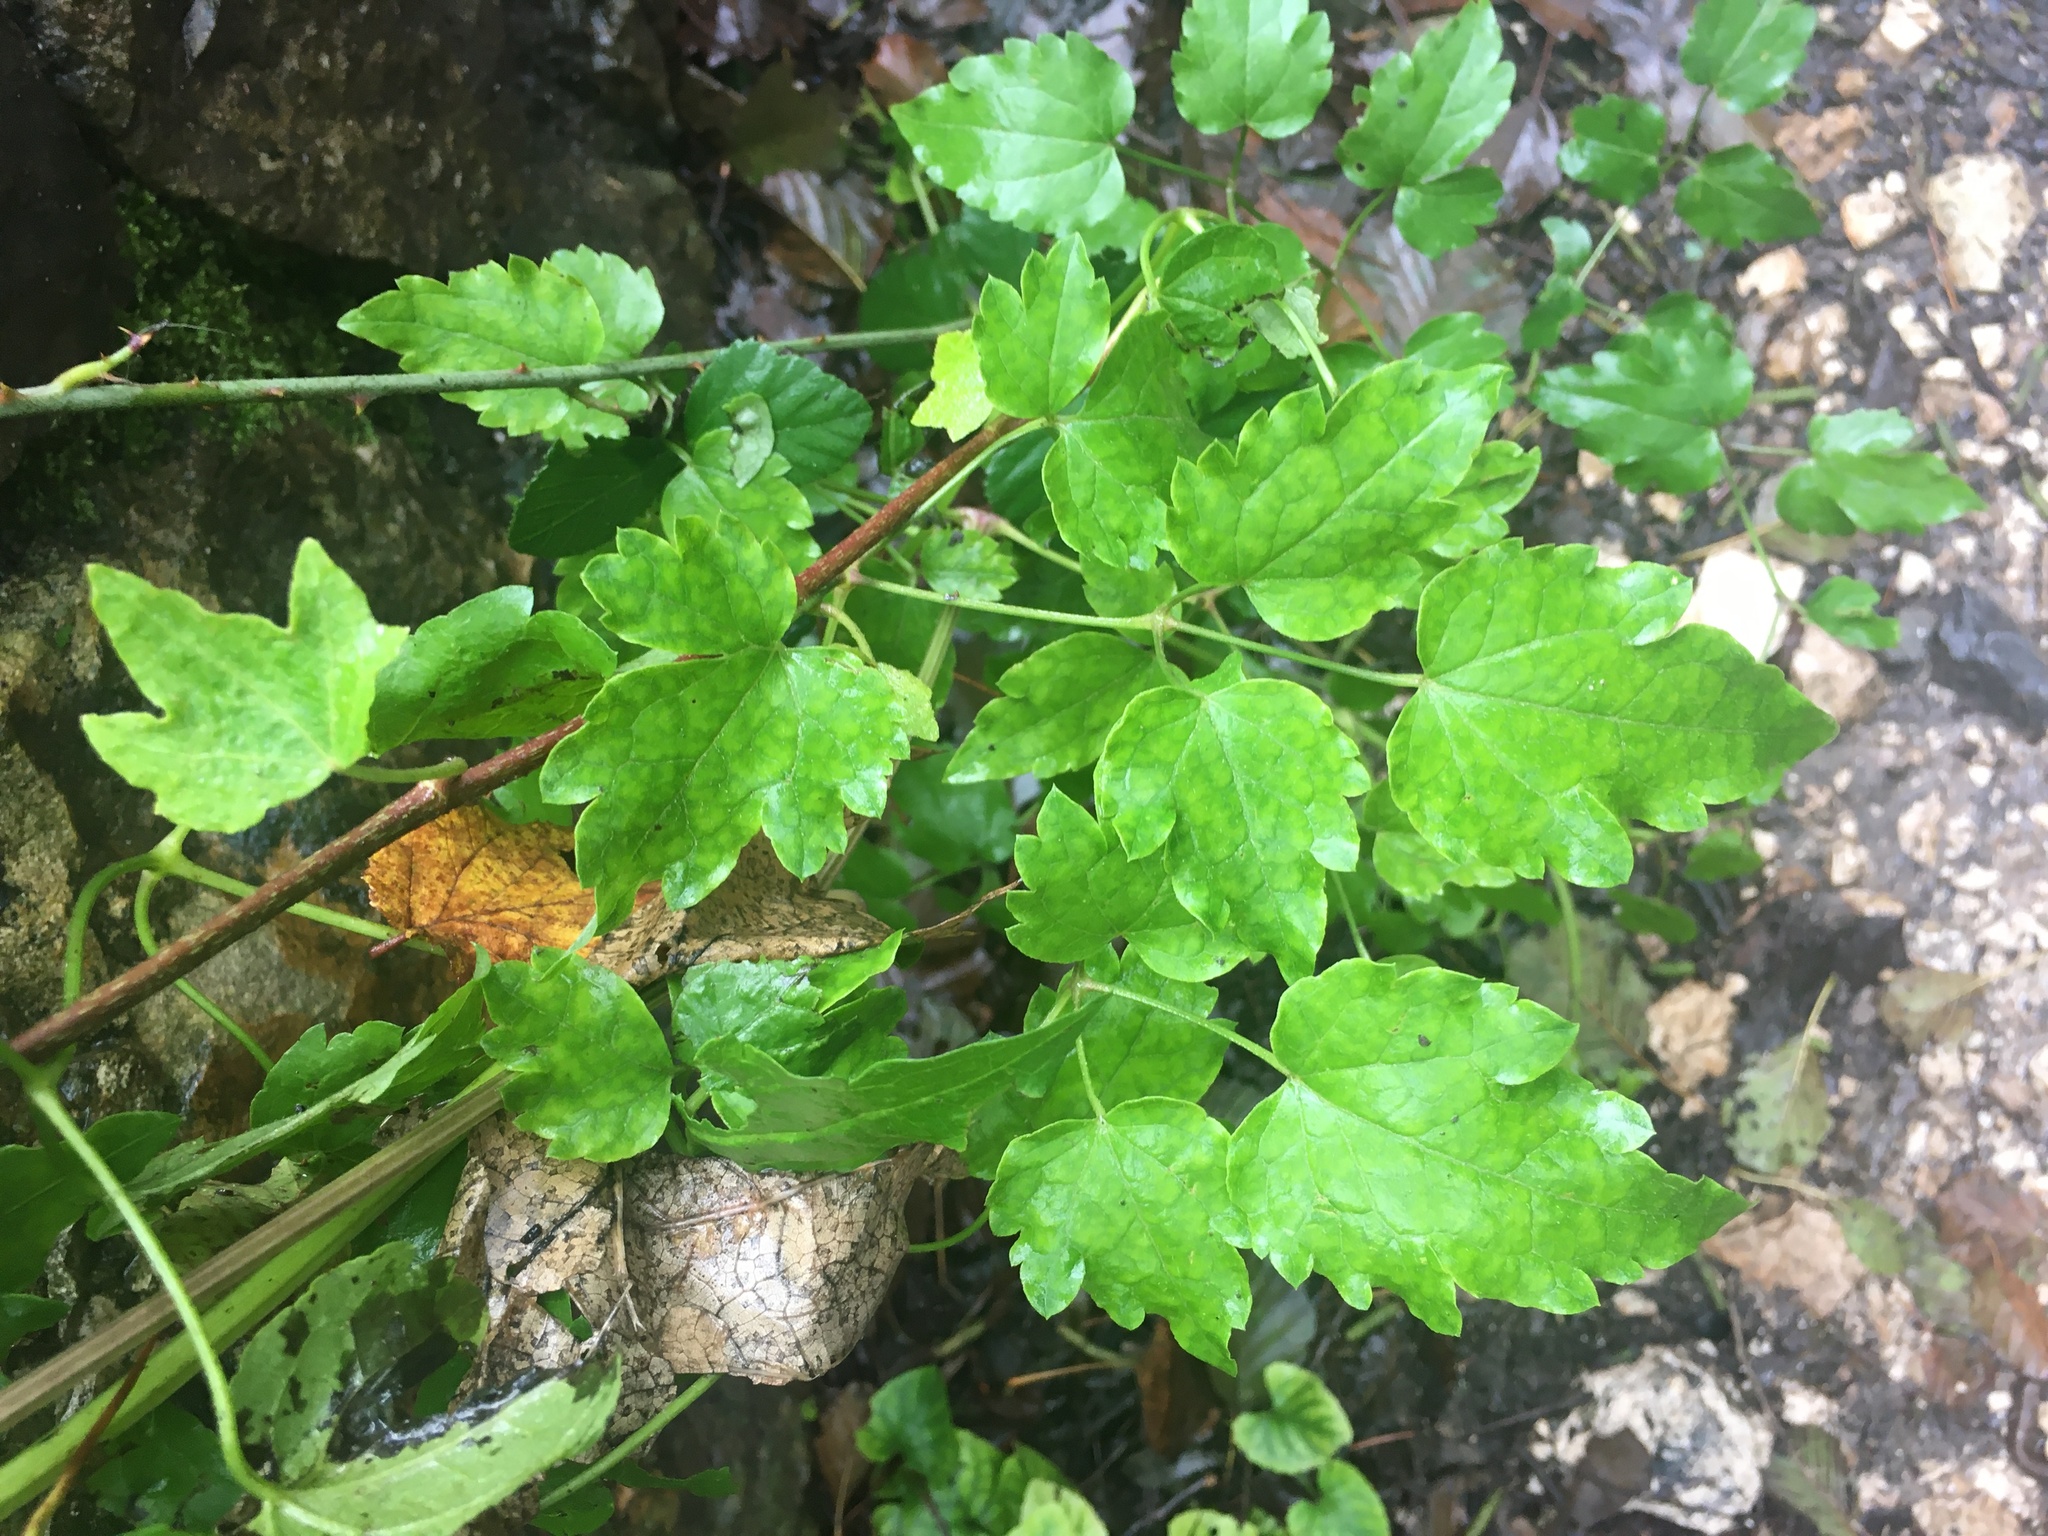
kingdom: Plantae
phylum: Tracheophyta
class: Magnoliopsida
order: Ranunculales
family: Ranunculaceae
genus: Clematis
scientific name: Clematis vitalba
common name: Evergreen clematis
